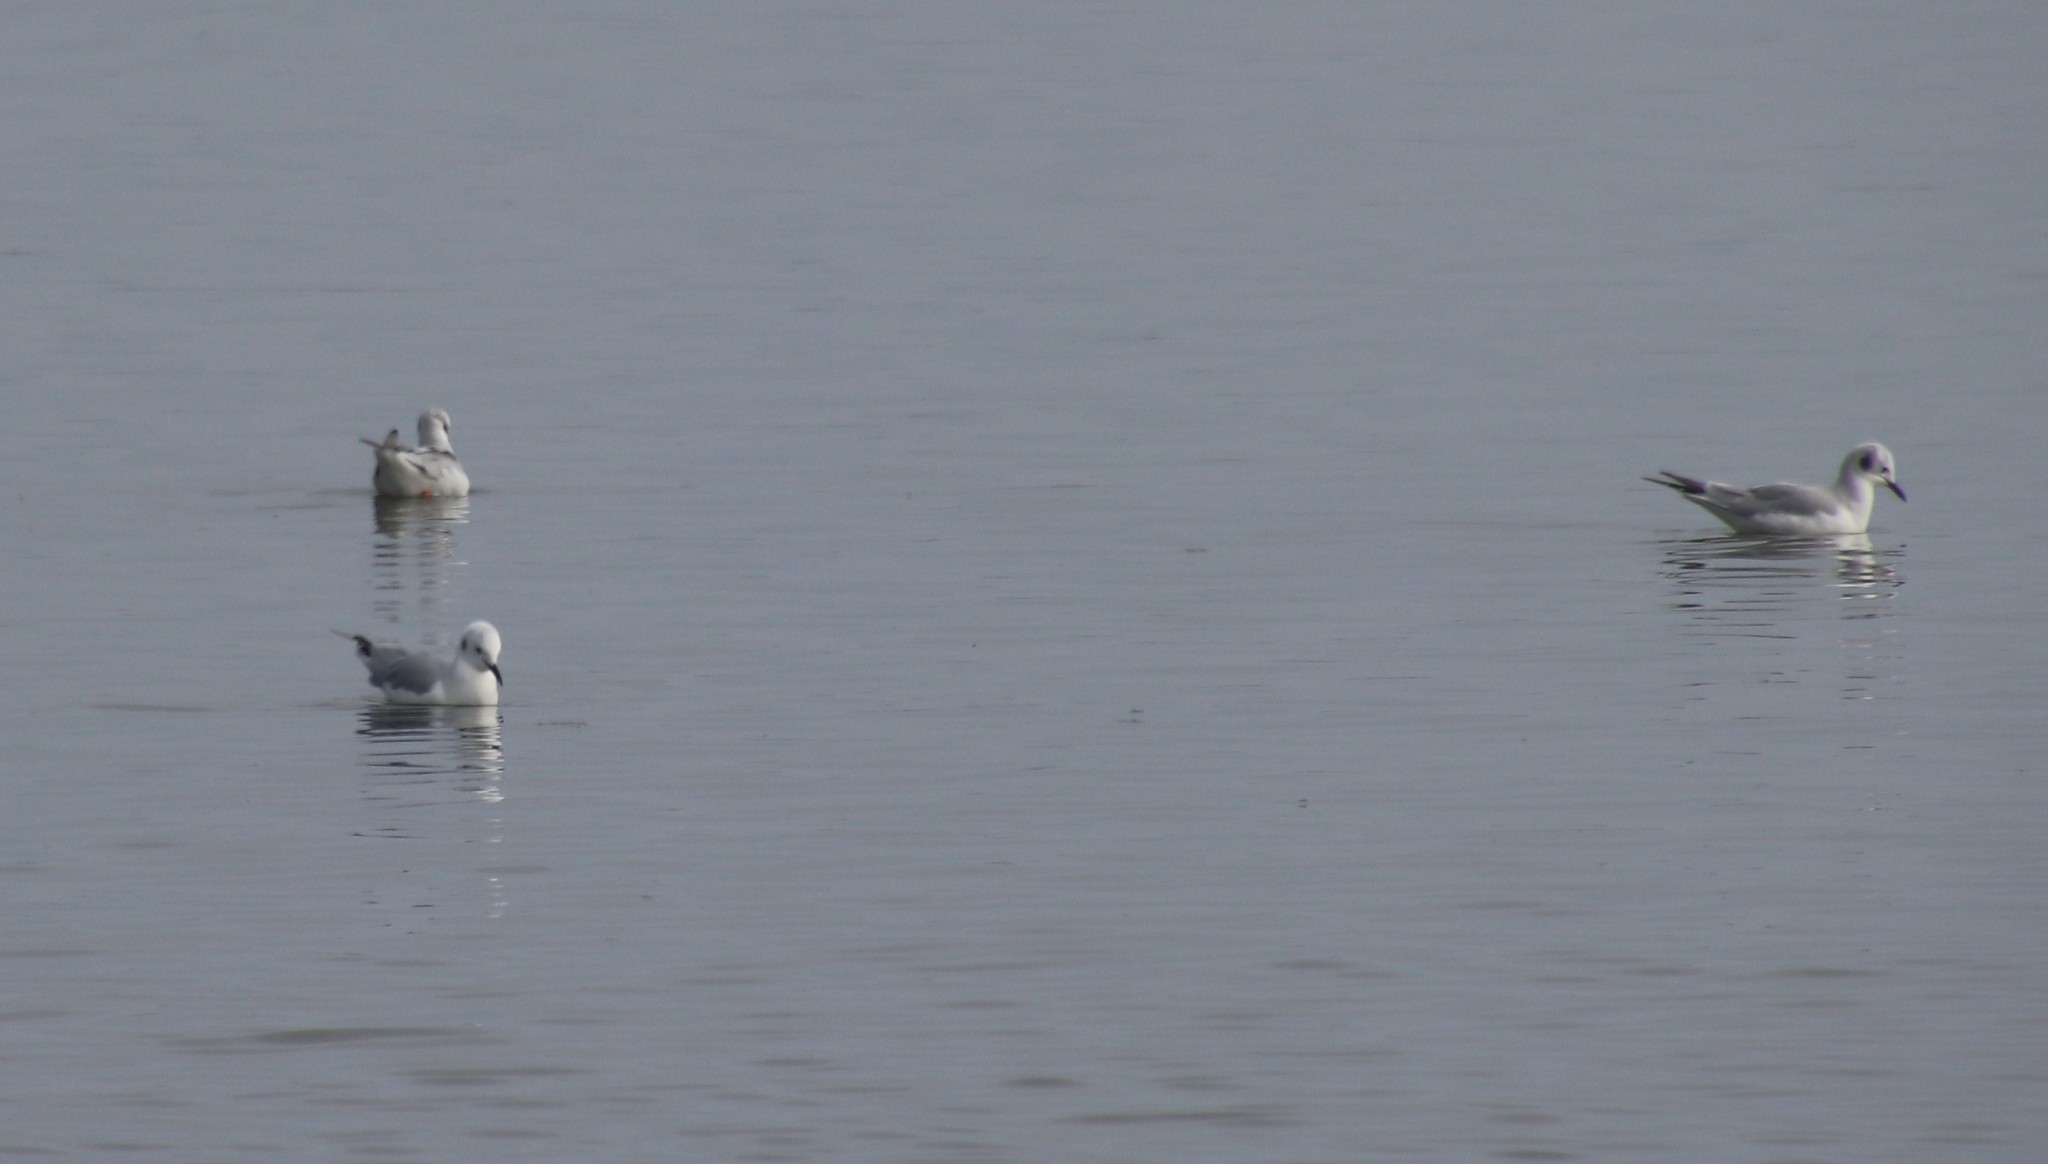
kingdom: Animalia
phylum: Chordata
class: Aves
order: Charadriiformes
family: Laridae
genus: Chroicocephalus
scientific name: Chroicocephalus philadelphia
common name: Bonaparte's gull
